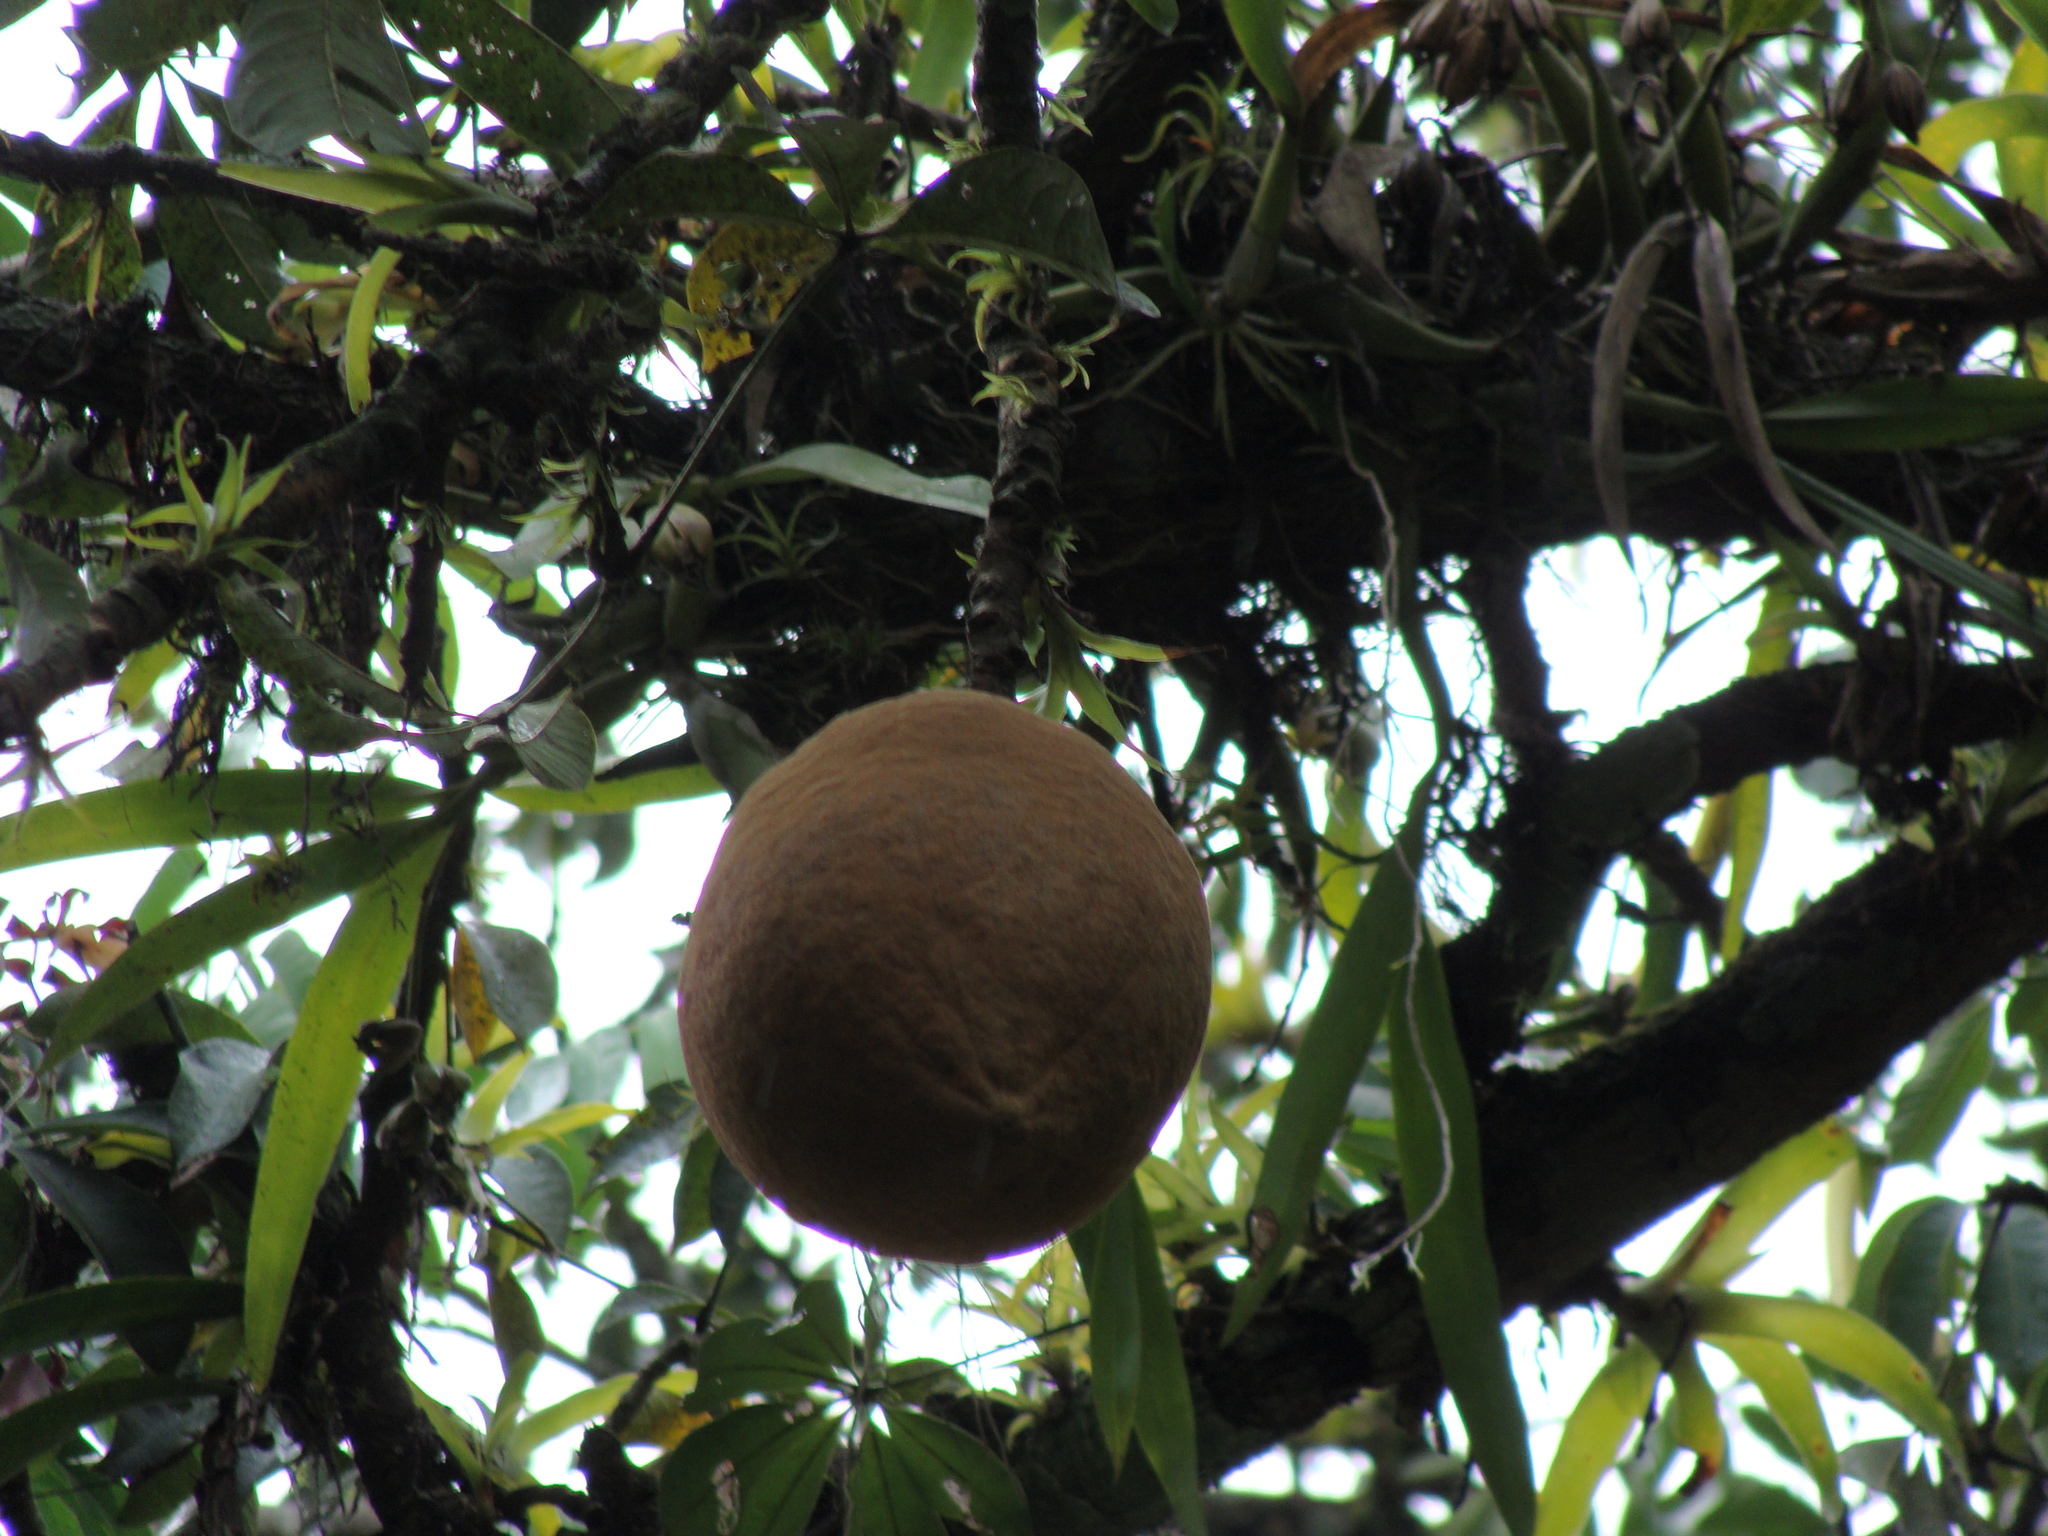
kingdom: Plantae
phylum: Tracheophyta
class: Magnoliopsida
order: Malvales
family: Malvaceae
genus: Pachira
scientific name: Pachira aquatica
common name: Provision-tree
